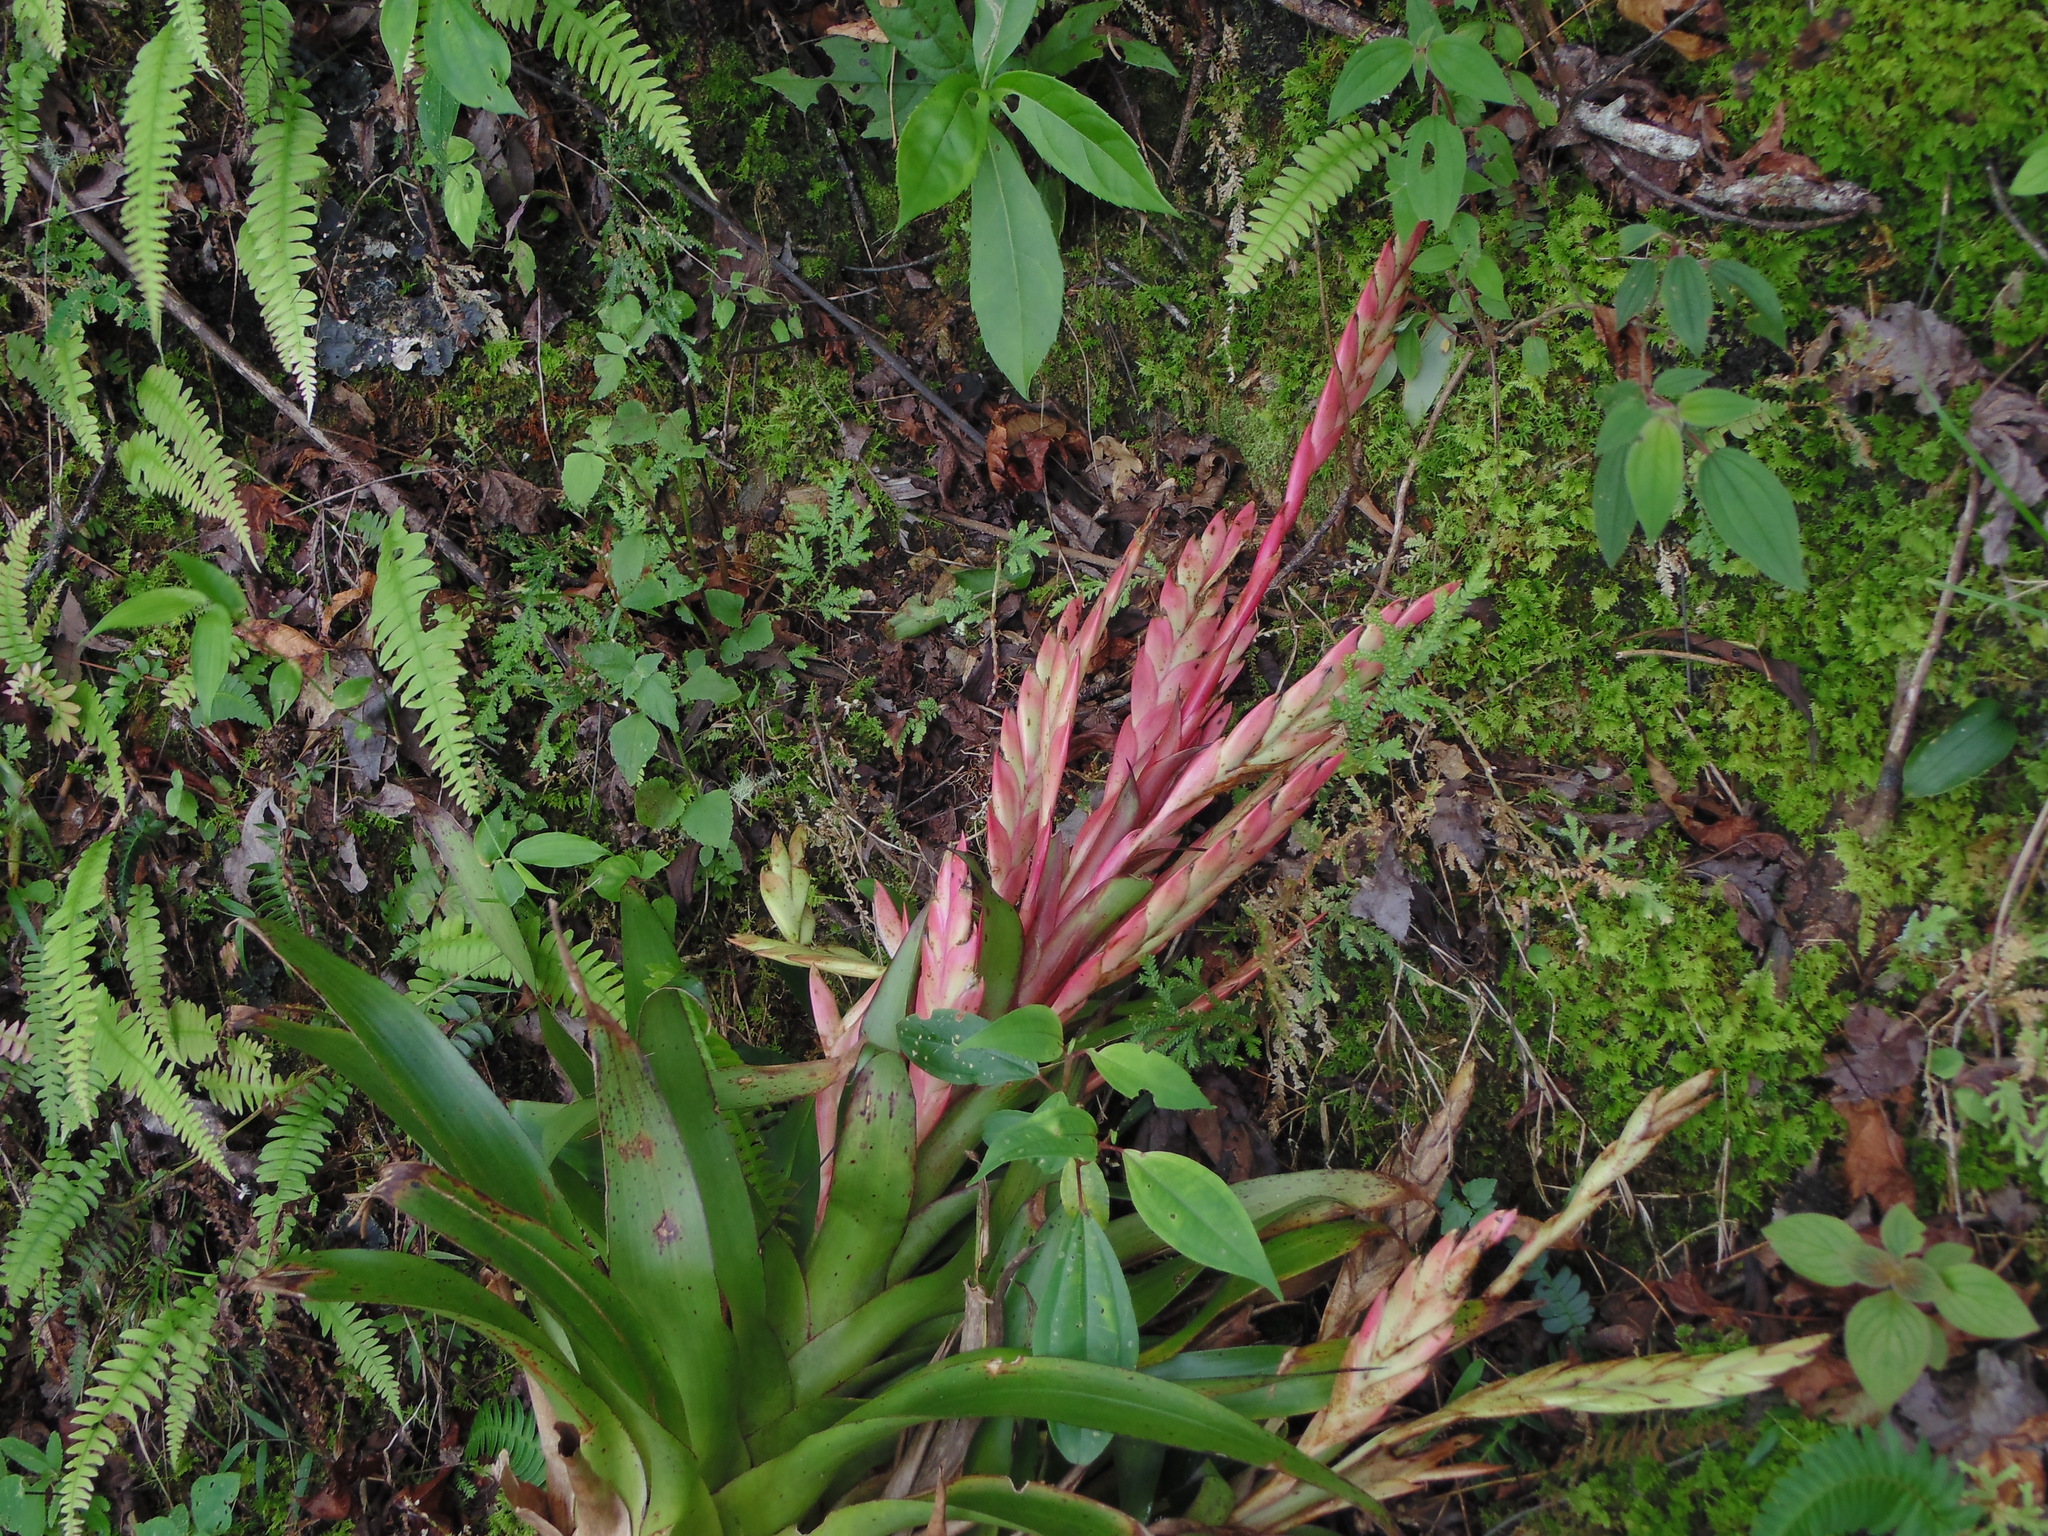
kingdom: Plantae
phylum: Tracheophyta
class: Liliopsida
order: Poales
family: Bromeliaceae
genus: Tillandsia
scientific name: Tillandsia deppeana
